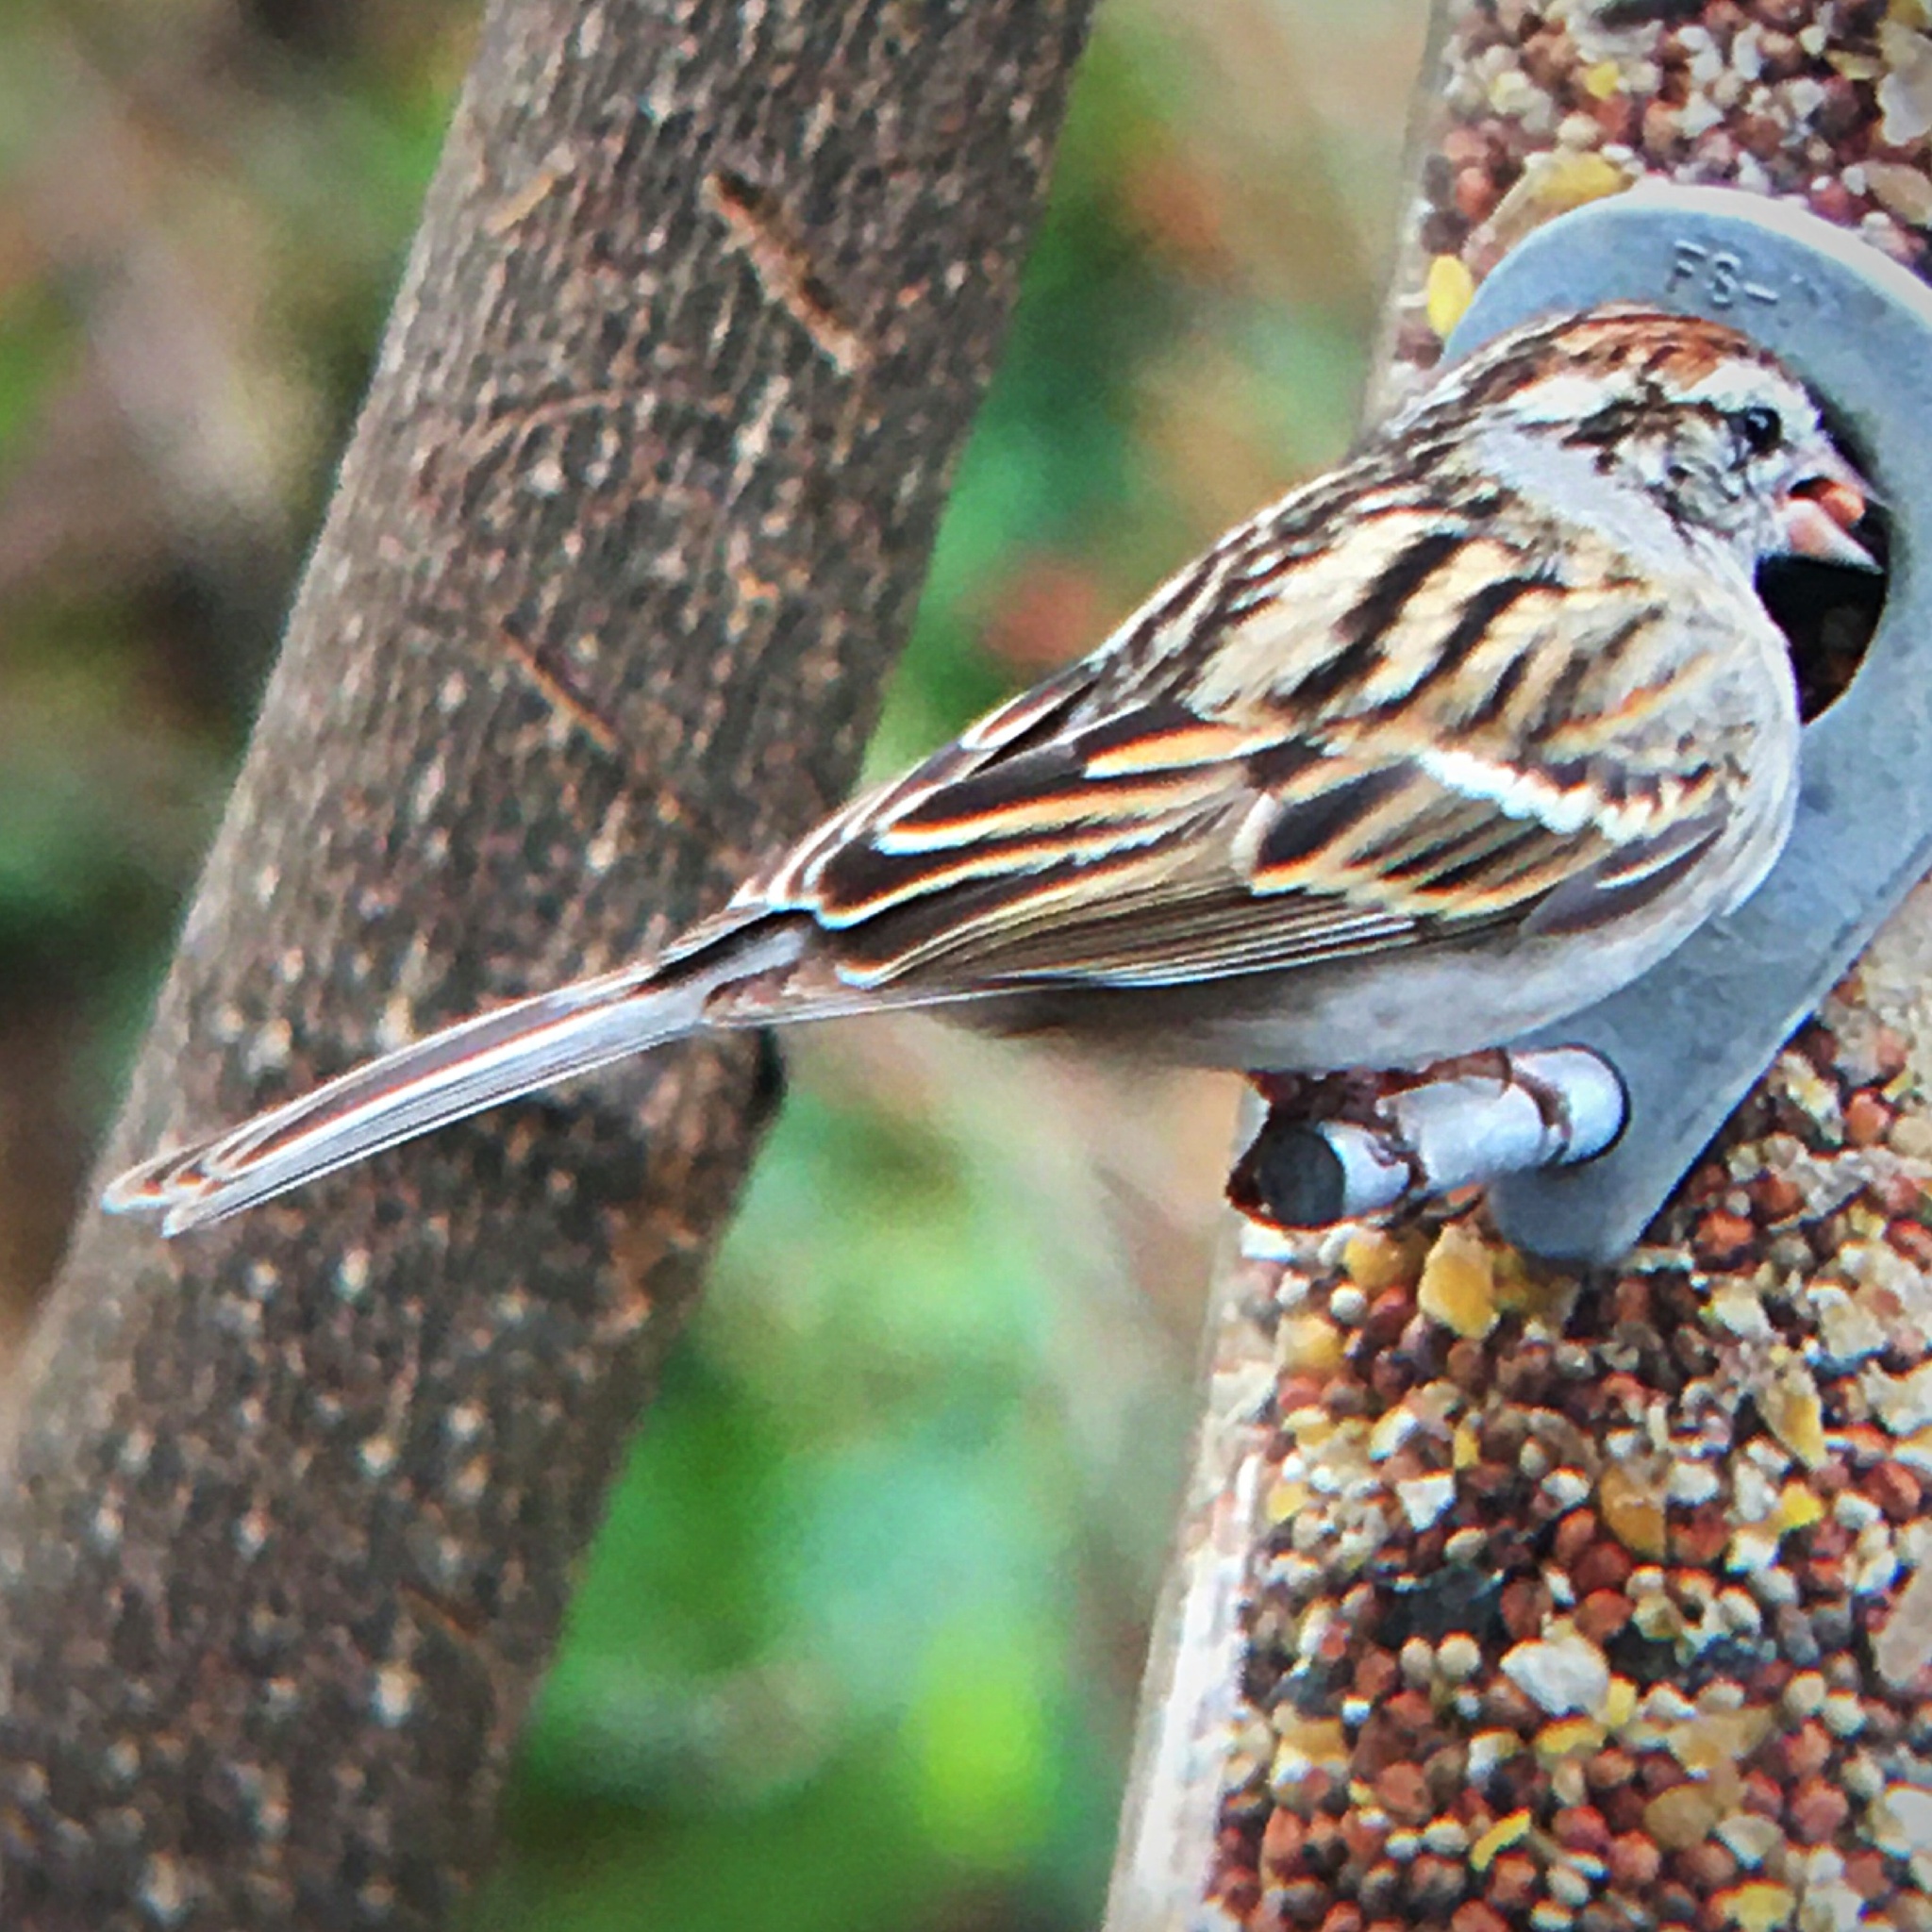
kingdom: Animalia
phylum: Chordata
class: Aves
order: Passeriformes
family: Passerellidae
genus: Spizella
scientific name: Spizella passerina
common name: Chipping sparrow
